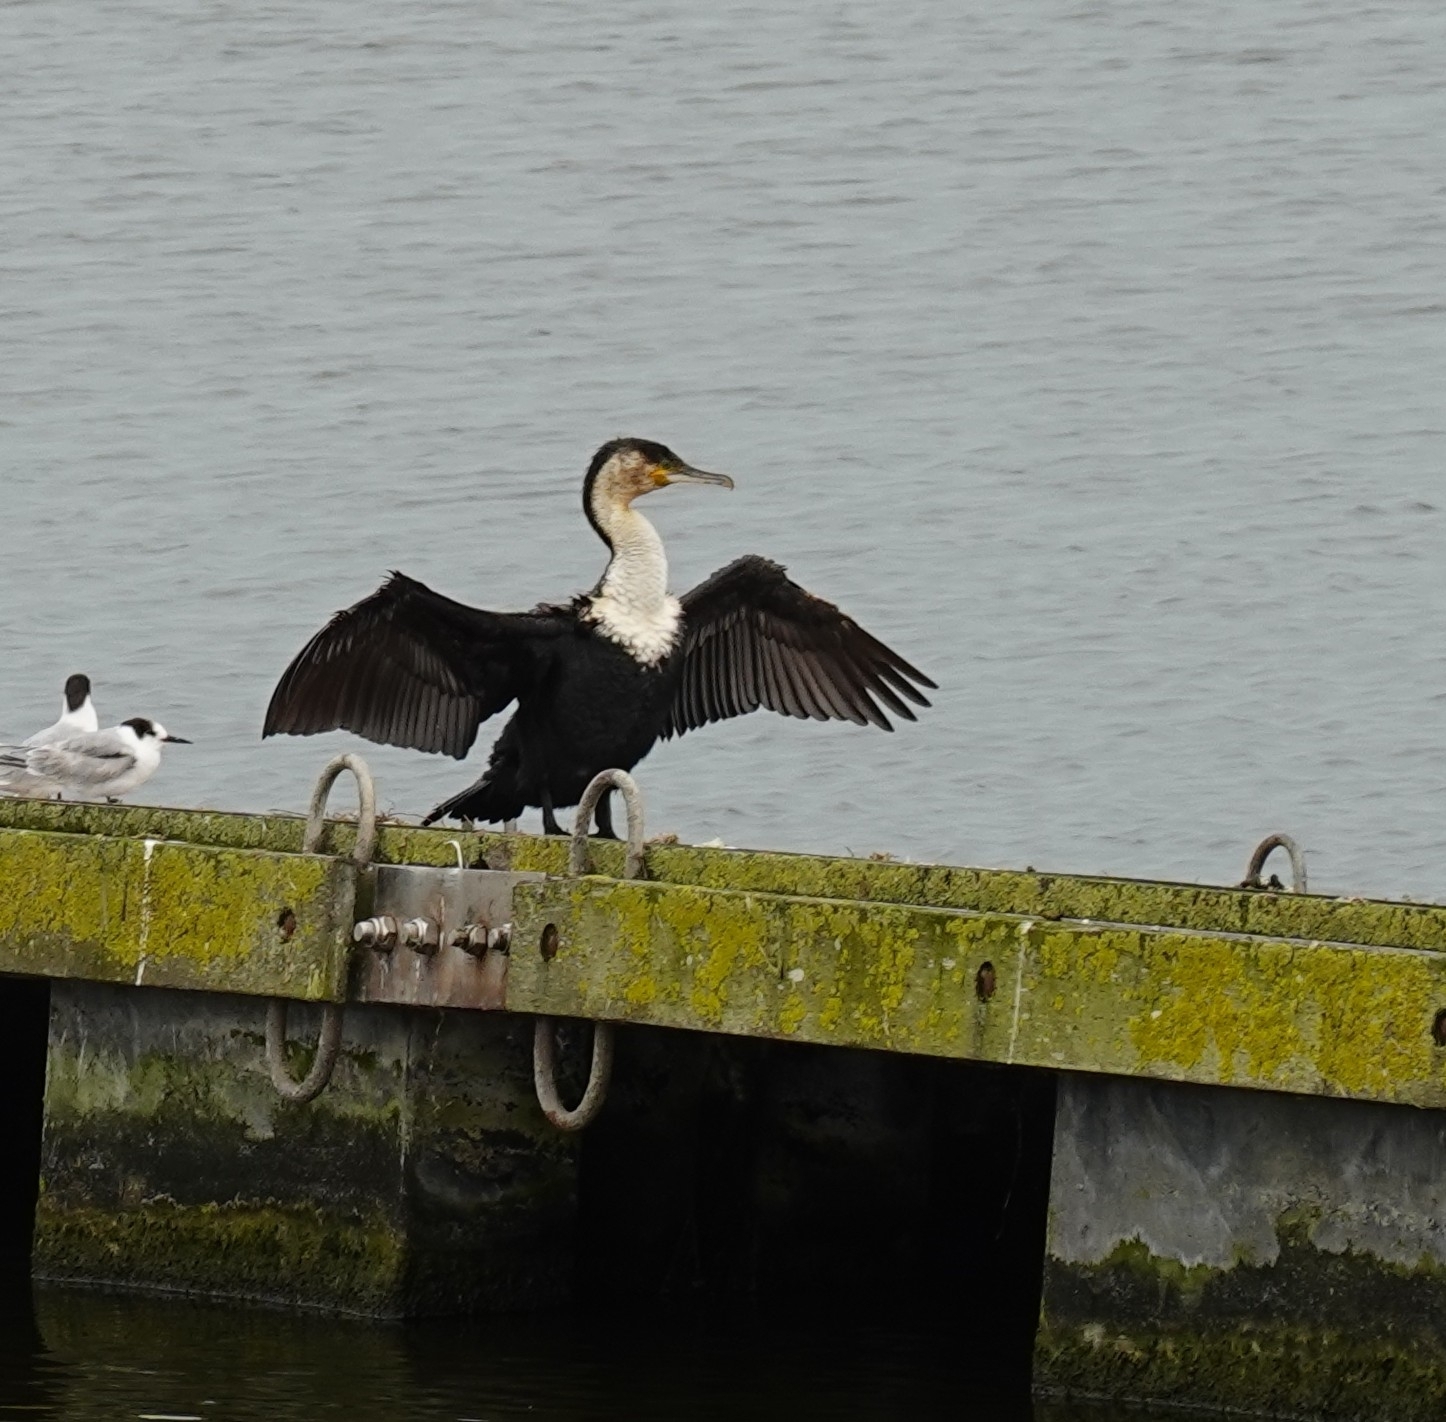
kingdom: Animalia
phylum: Chordata
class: Aves
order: Suliformes
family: Phalacrocoracidae
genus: Phalacrocorax
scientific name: Phalacrocorax carbo
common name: Great cormorant
